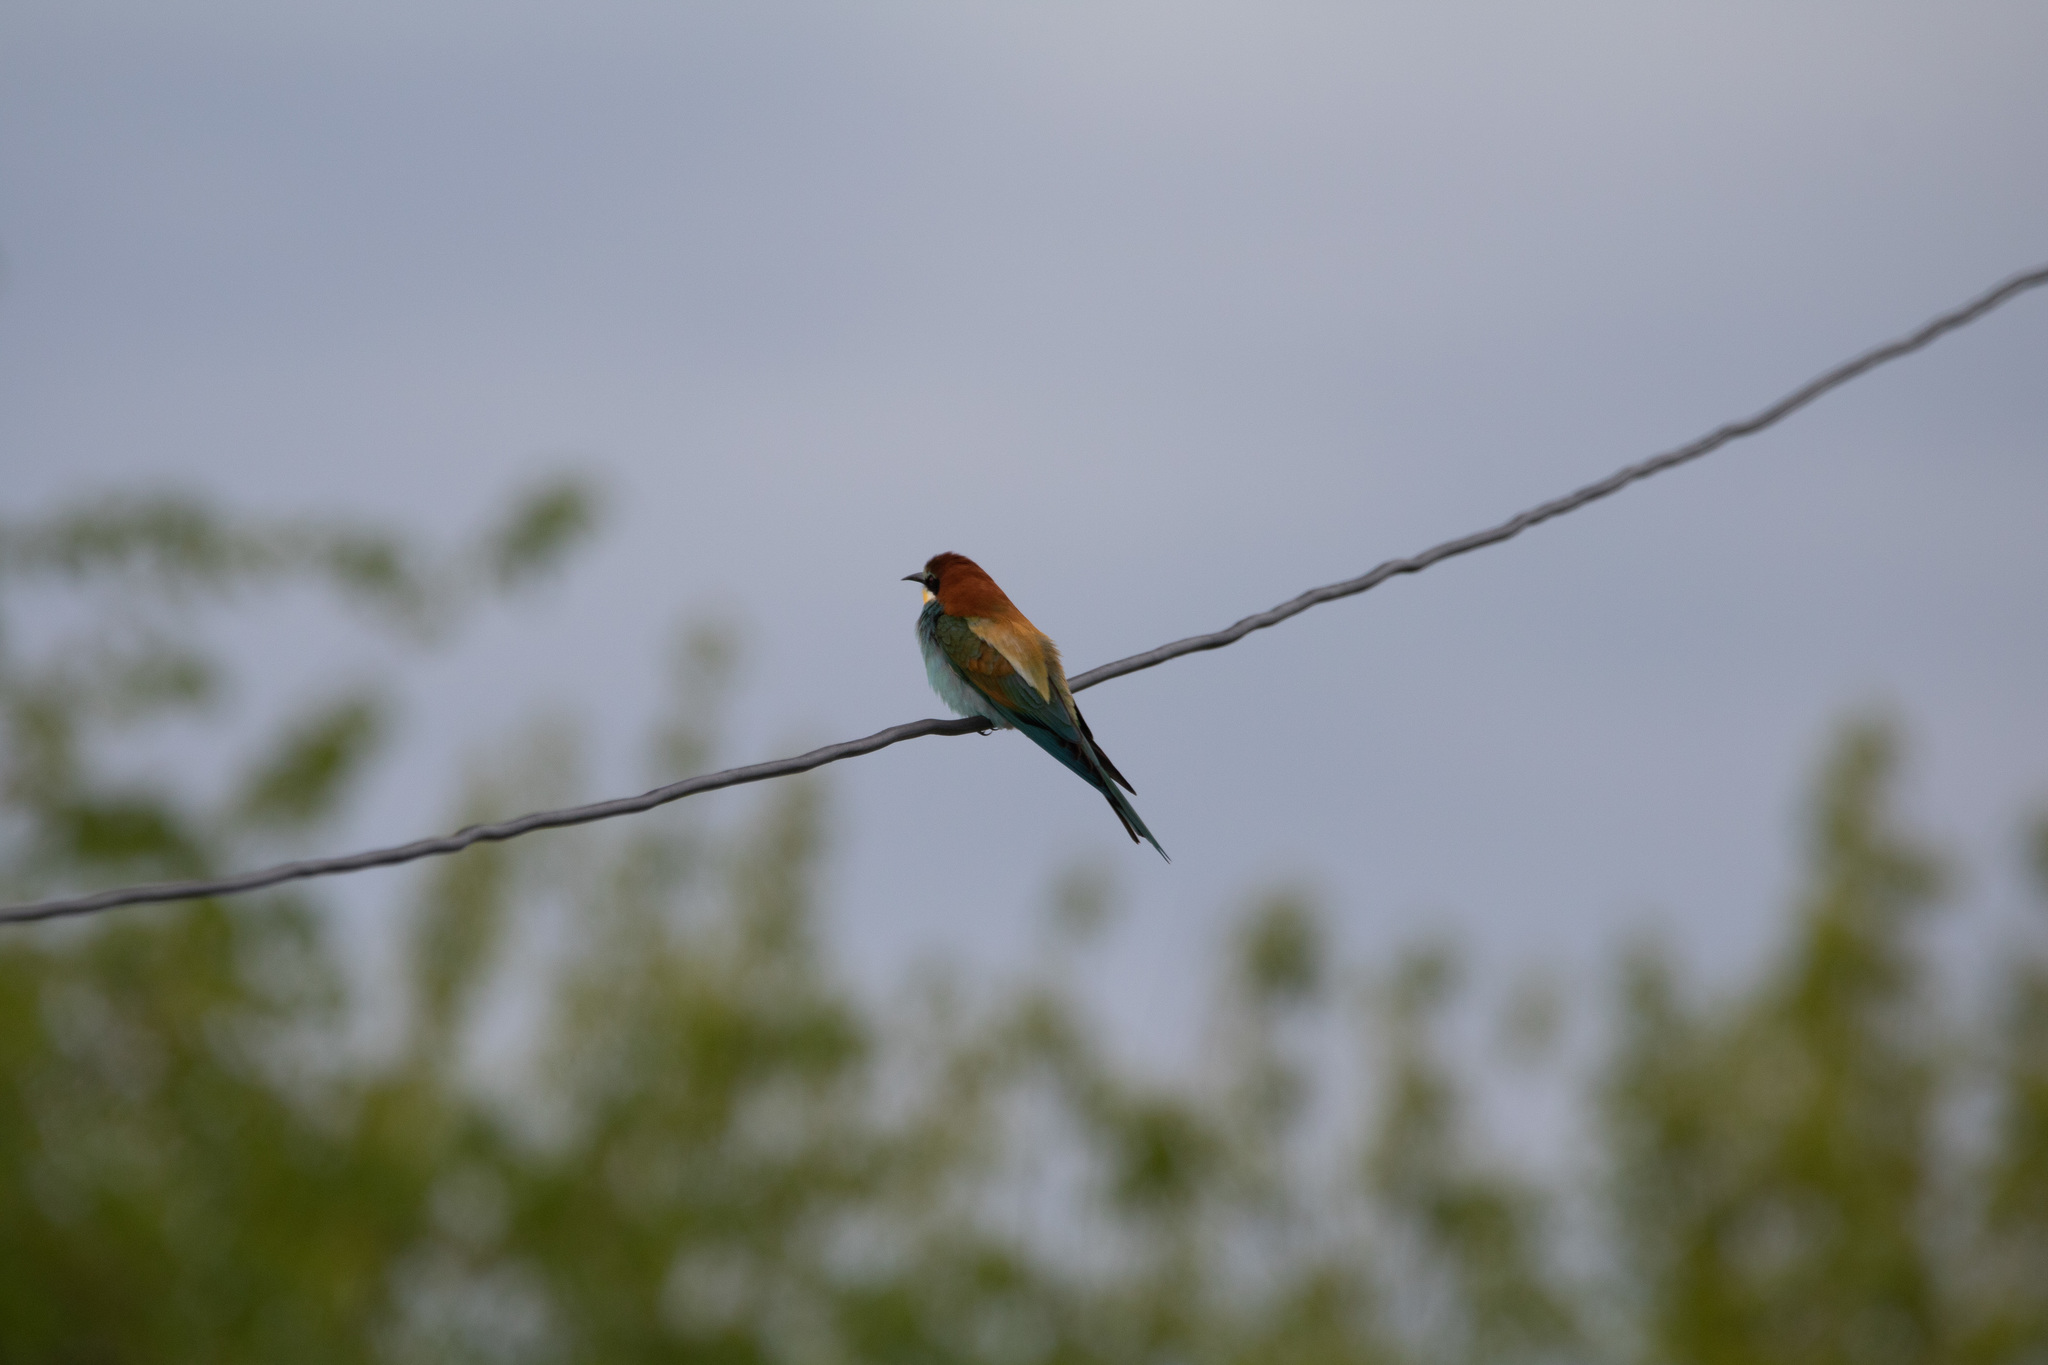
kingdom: Animalia
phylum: Chordata
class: Aves
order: Coraciiformes
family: Meropidae
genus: Merops
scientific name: Merops apiaster
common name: European bee-eater
